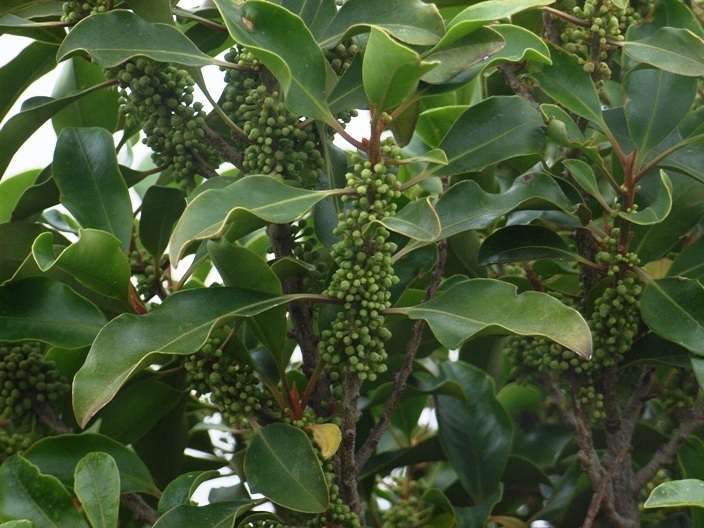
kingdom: Plantae
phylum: Tracheophyta
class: Magnoliopsida
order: Ericales
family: Primulaceae
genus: Myrsine
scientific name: Myrsine howittiana
